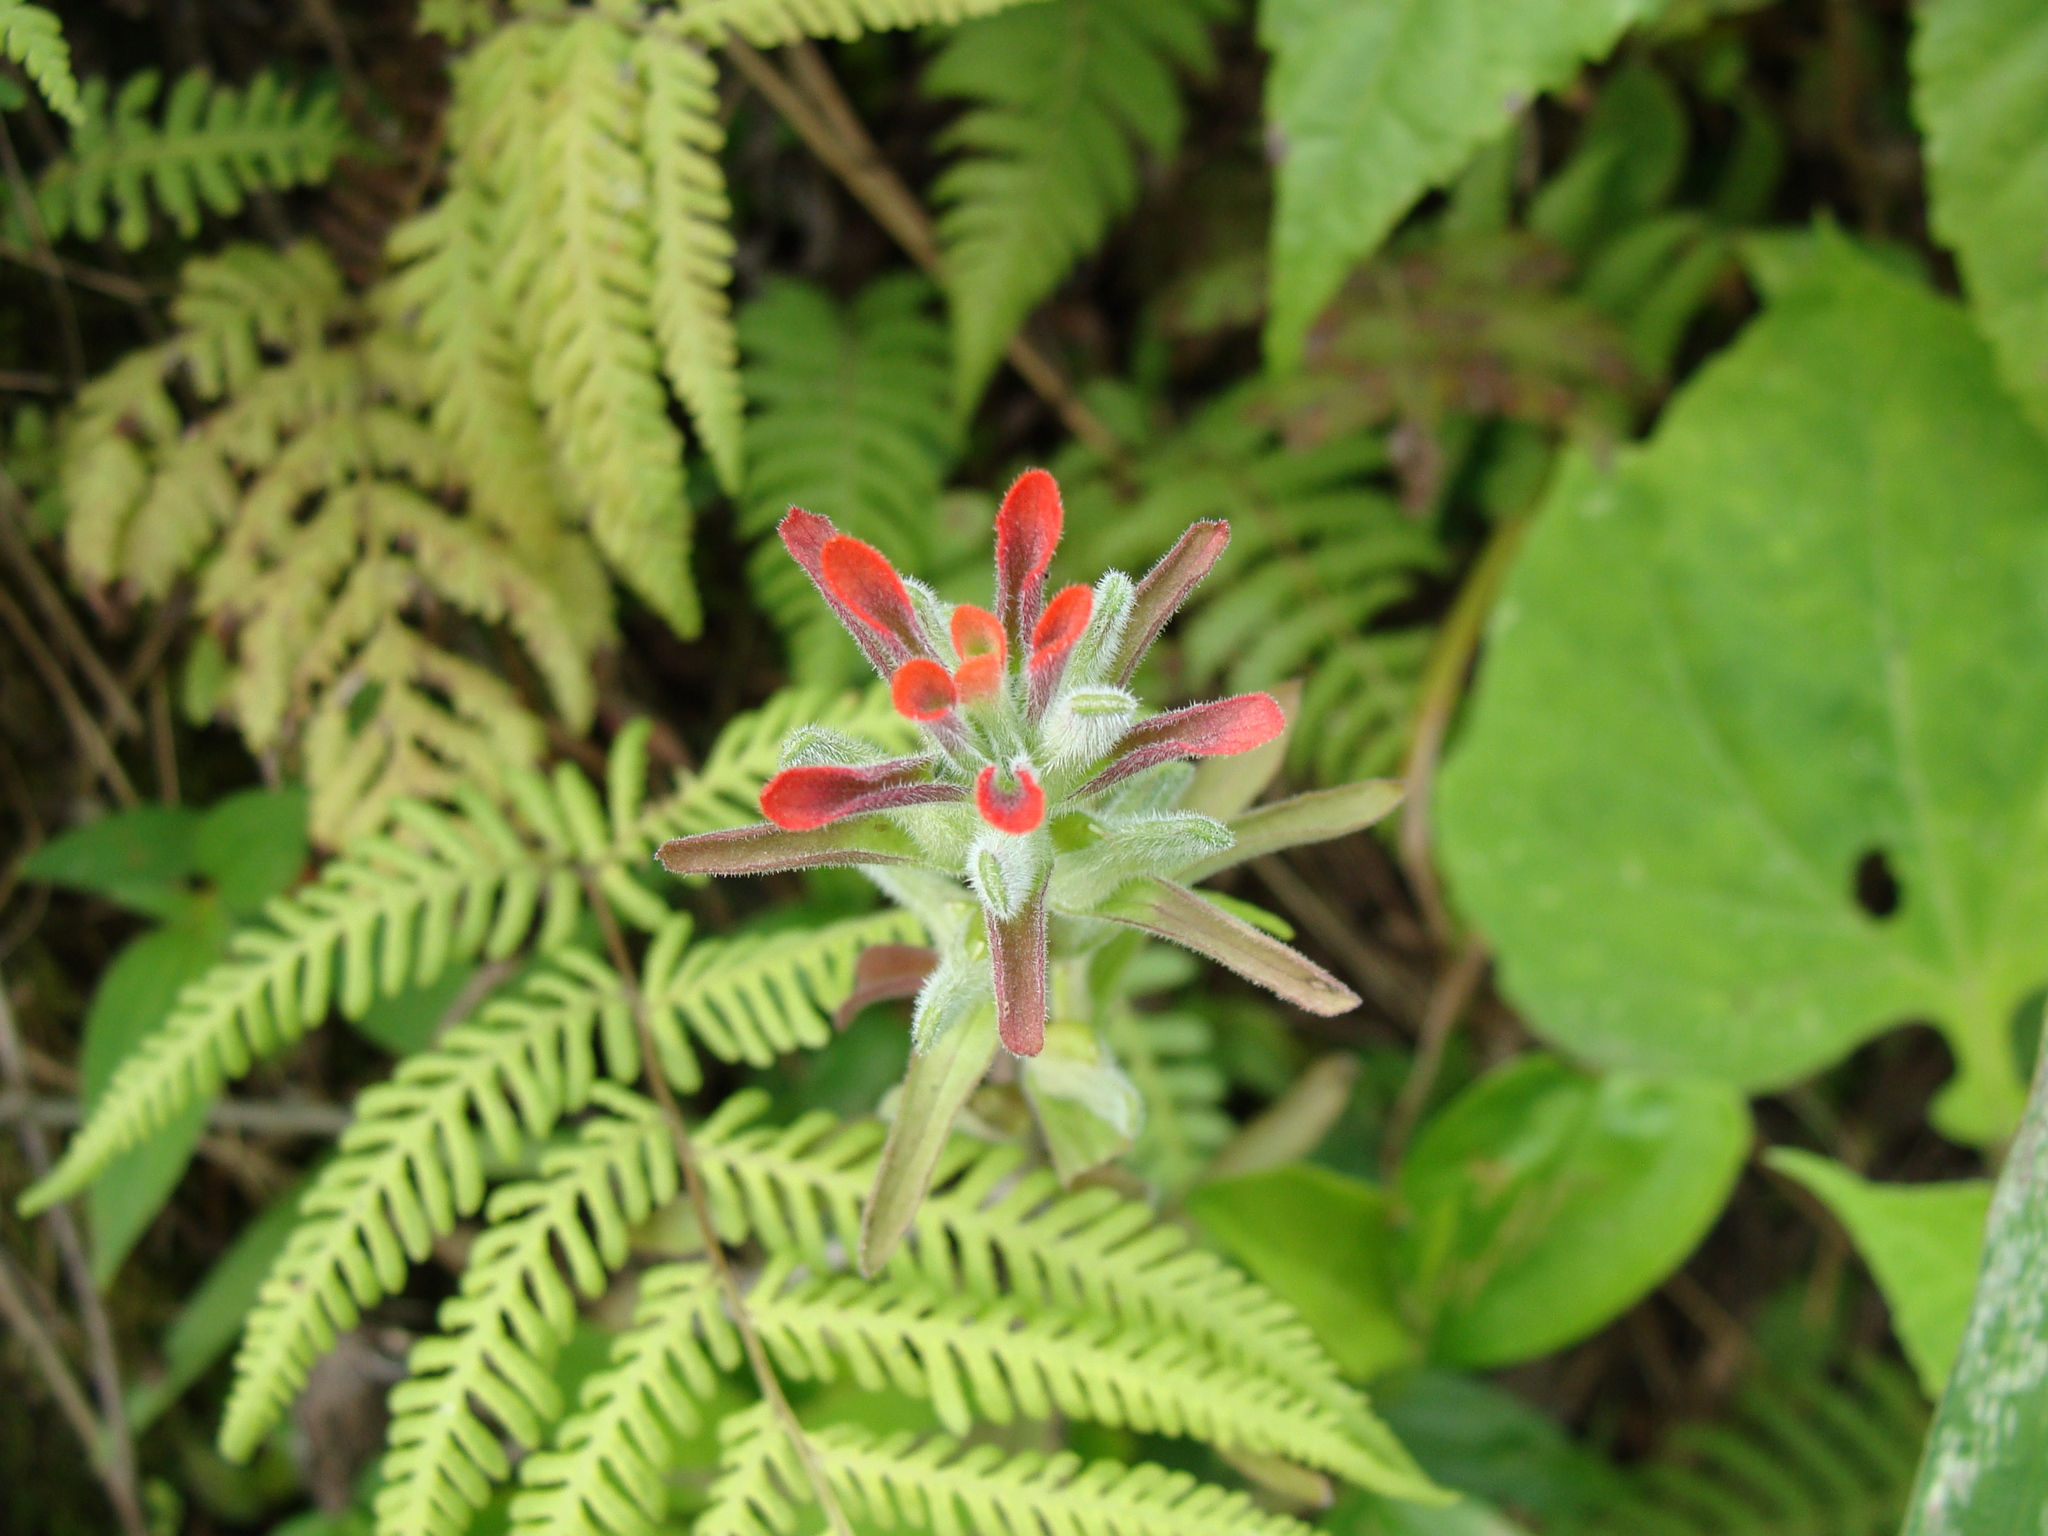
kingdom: Plantae
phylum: Tracheophyta
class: Magnoliopsida
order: Lamiales
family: Orobanchaceae
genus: Castilleja
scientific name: Castilleja arvensis
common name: Indian paintbrush
